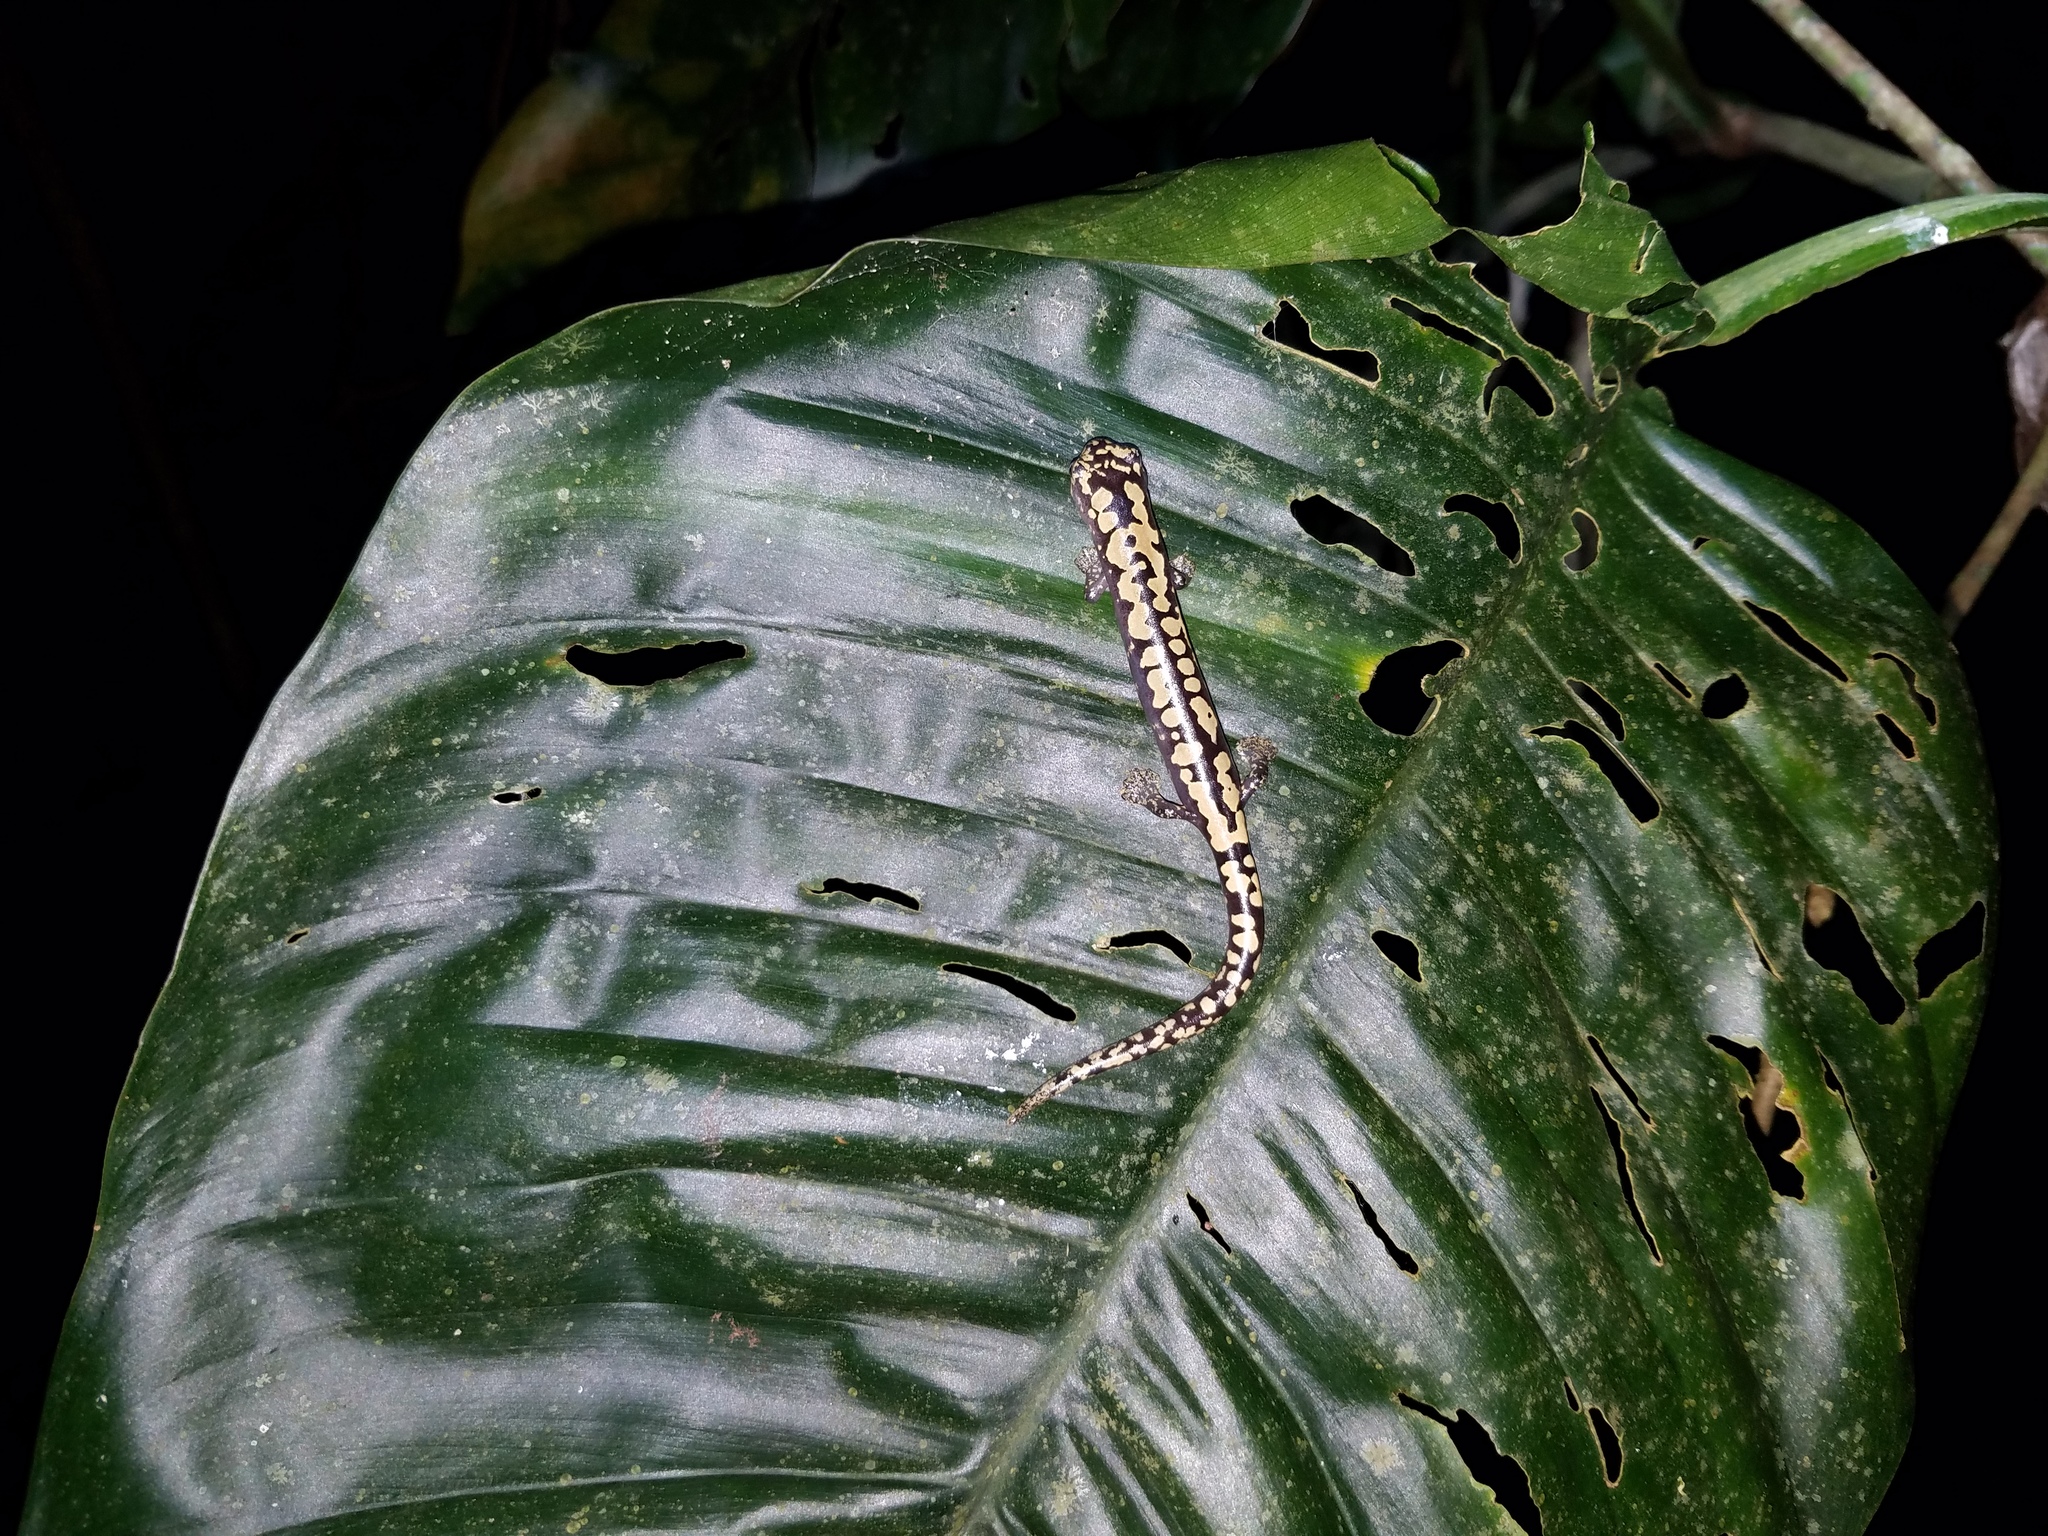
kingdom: Animalia
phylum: Chordata
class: Amphibia
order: Caudata
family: Plethodontidae
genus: Bolitoglossa
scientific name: Bolitoglossa alberchi
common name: Alberch's salamander
